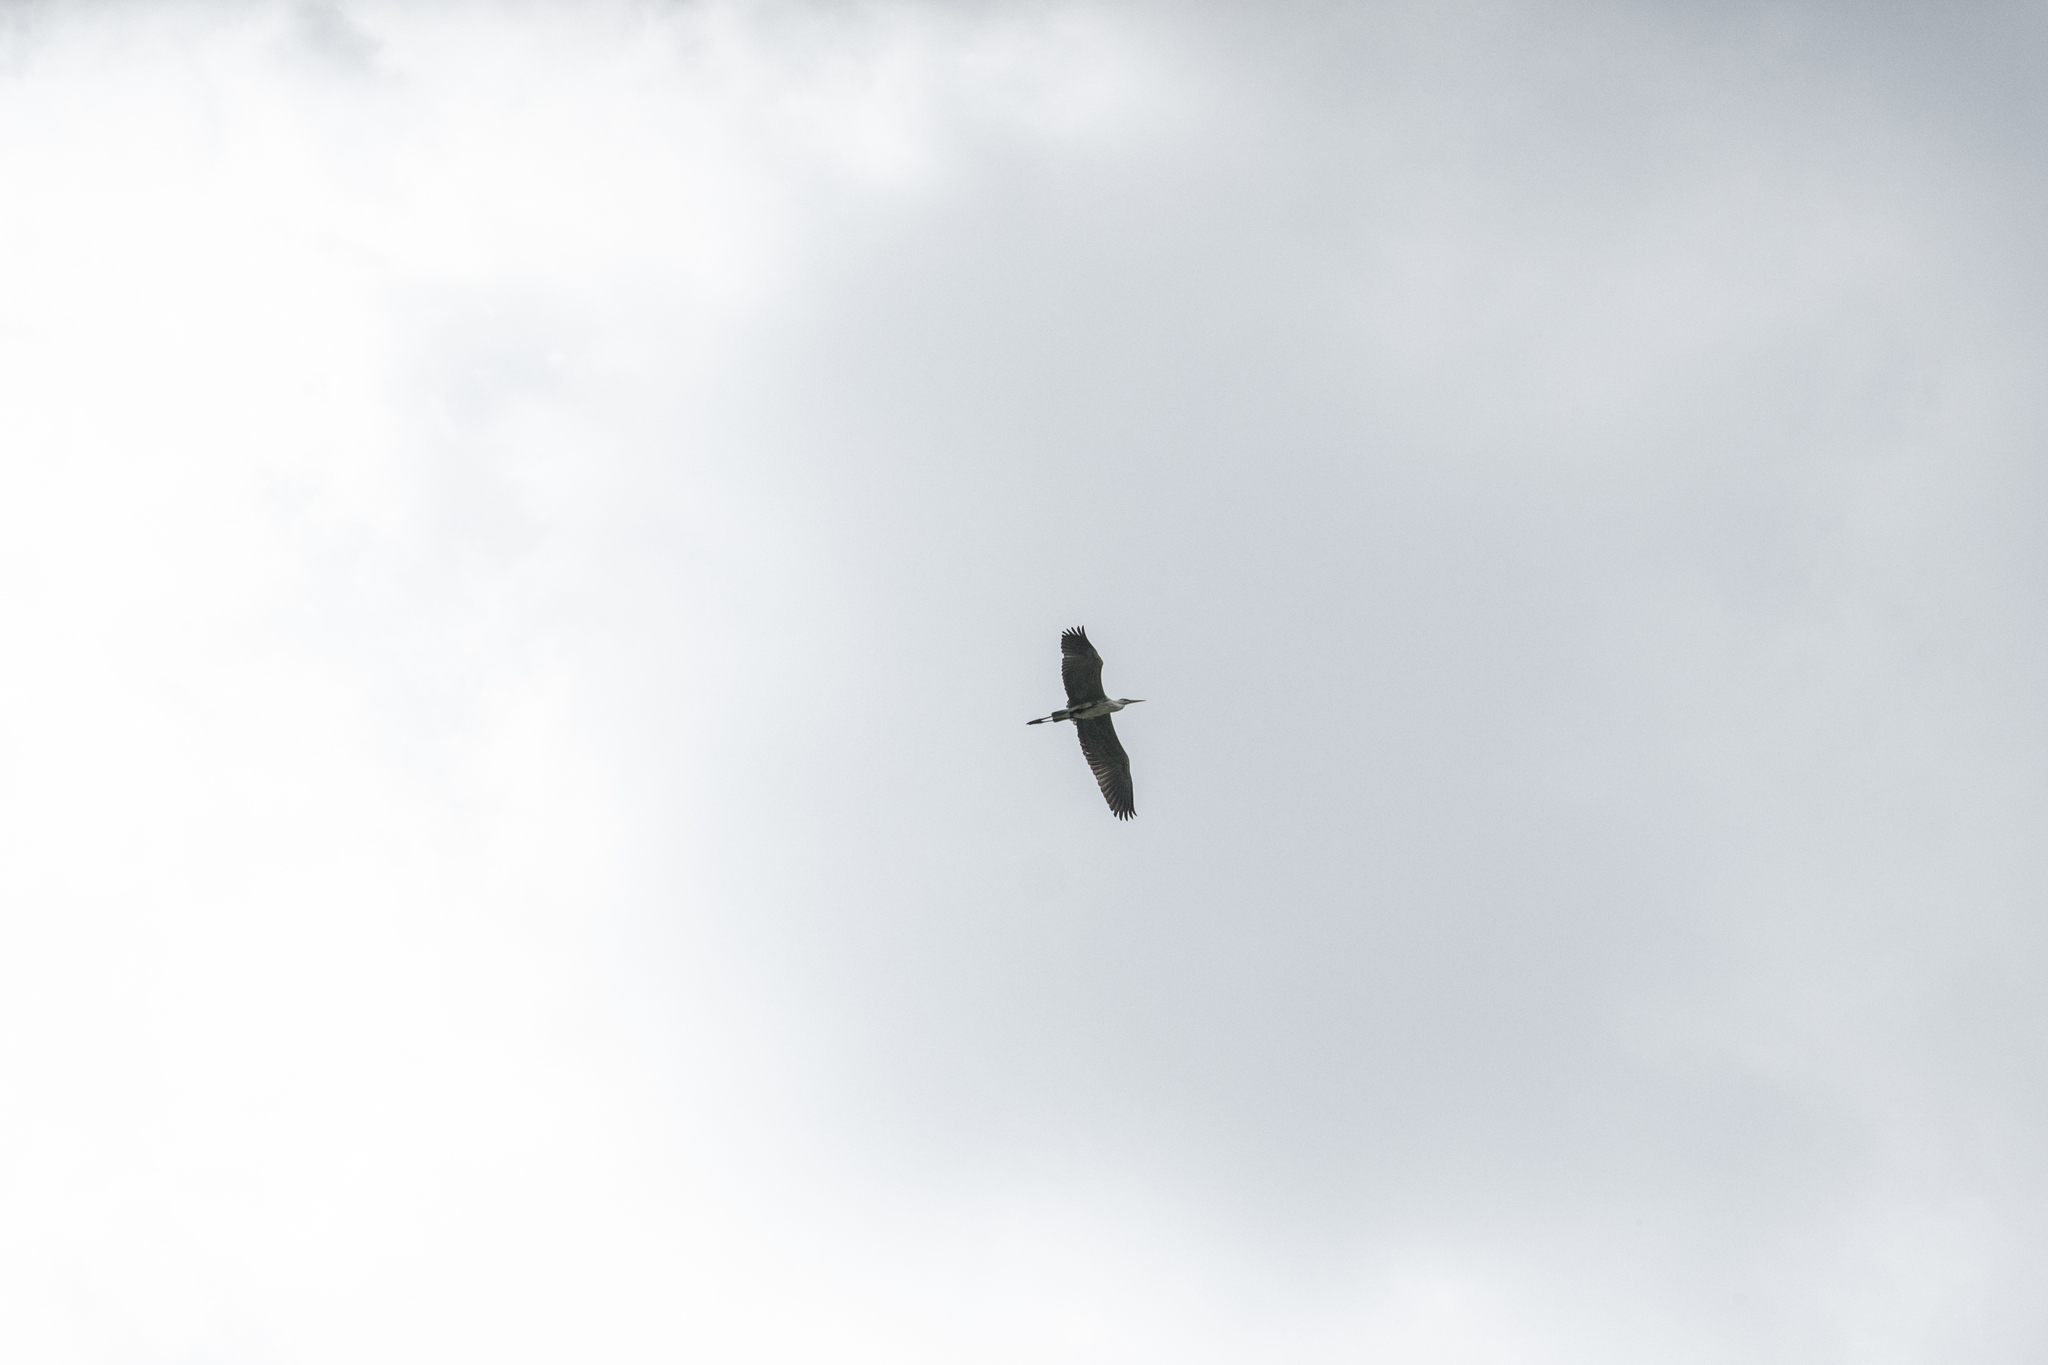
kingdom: Animalia
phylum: Chordata
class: Aves
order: Pelecaniformes
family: Ardeidae
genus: Ardea
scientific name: Ardea cinerea
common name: Grey heron
